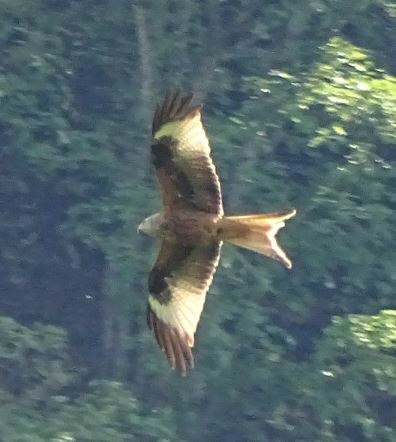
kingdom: Animalia
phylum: Chordata
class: Aves
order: Accipitriformes
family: Accipitridae
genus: Milvus
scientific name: Milvus milvus
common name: Red kite
